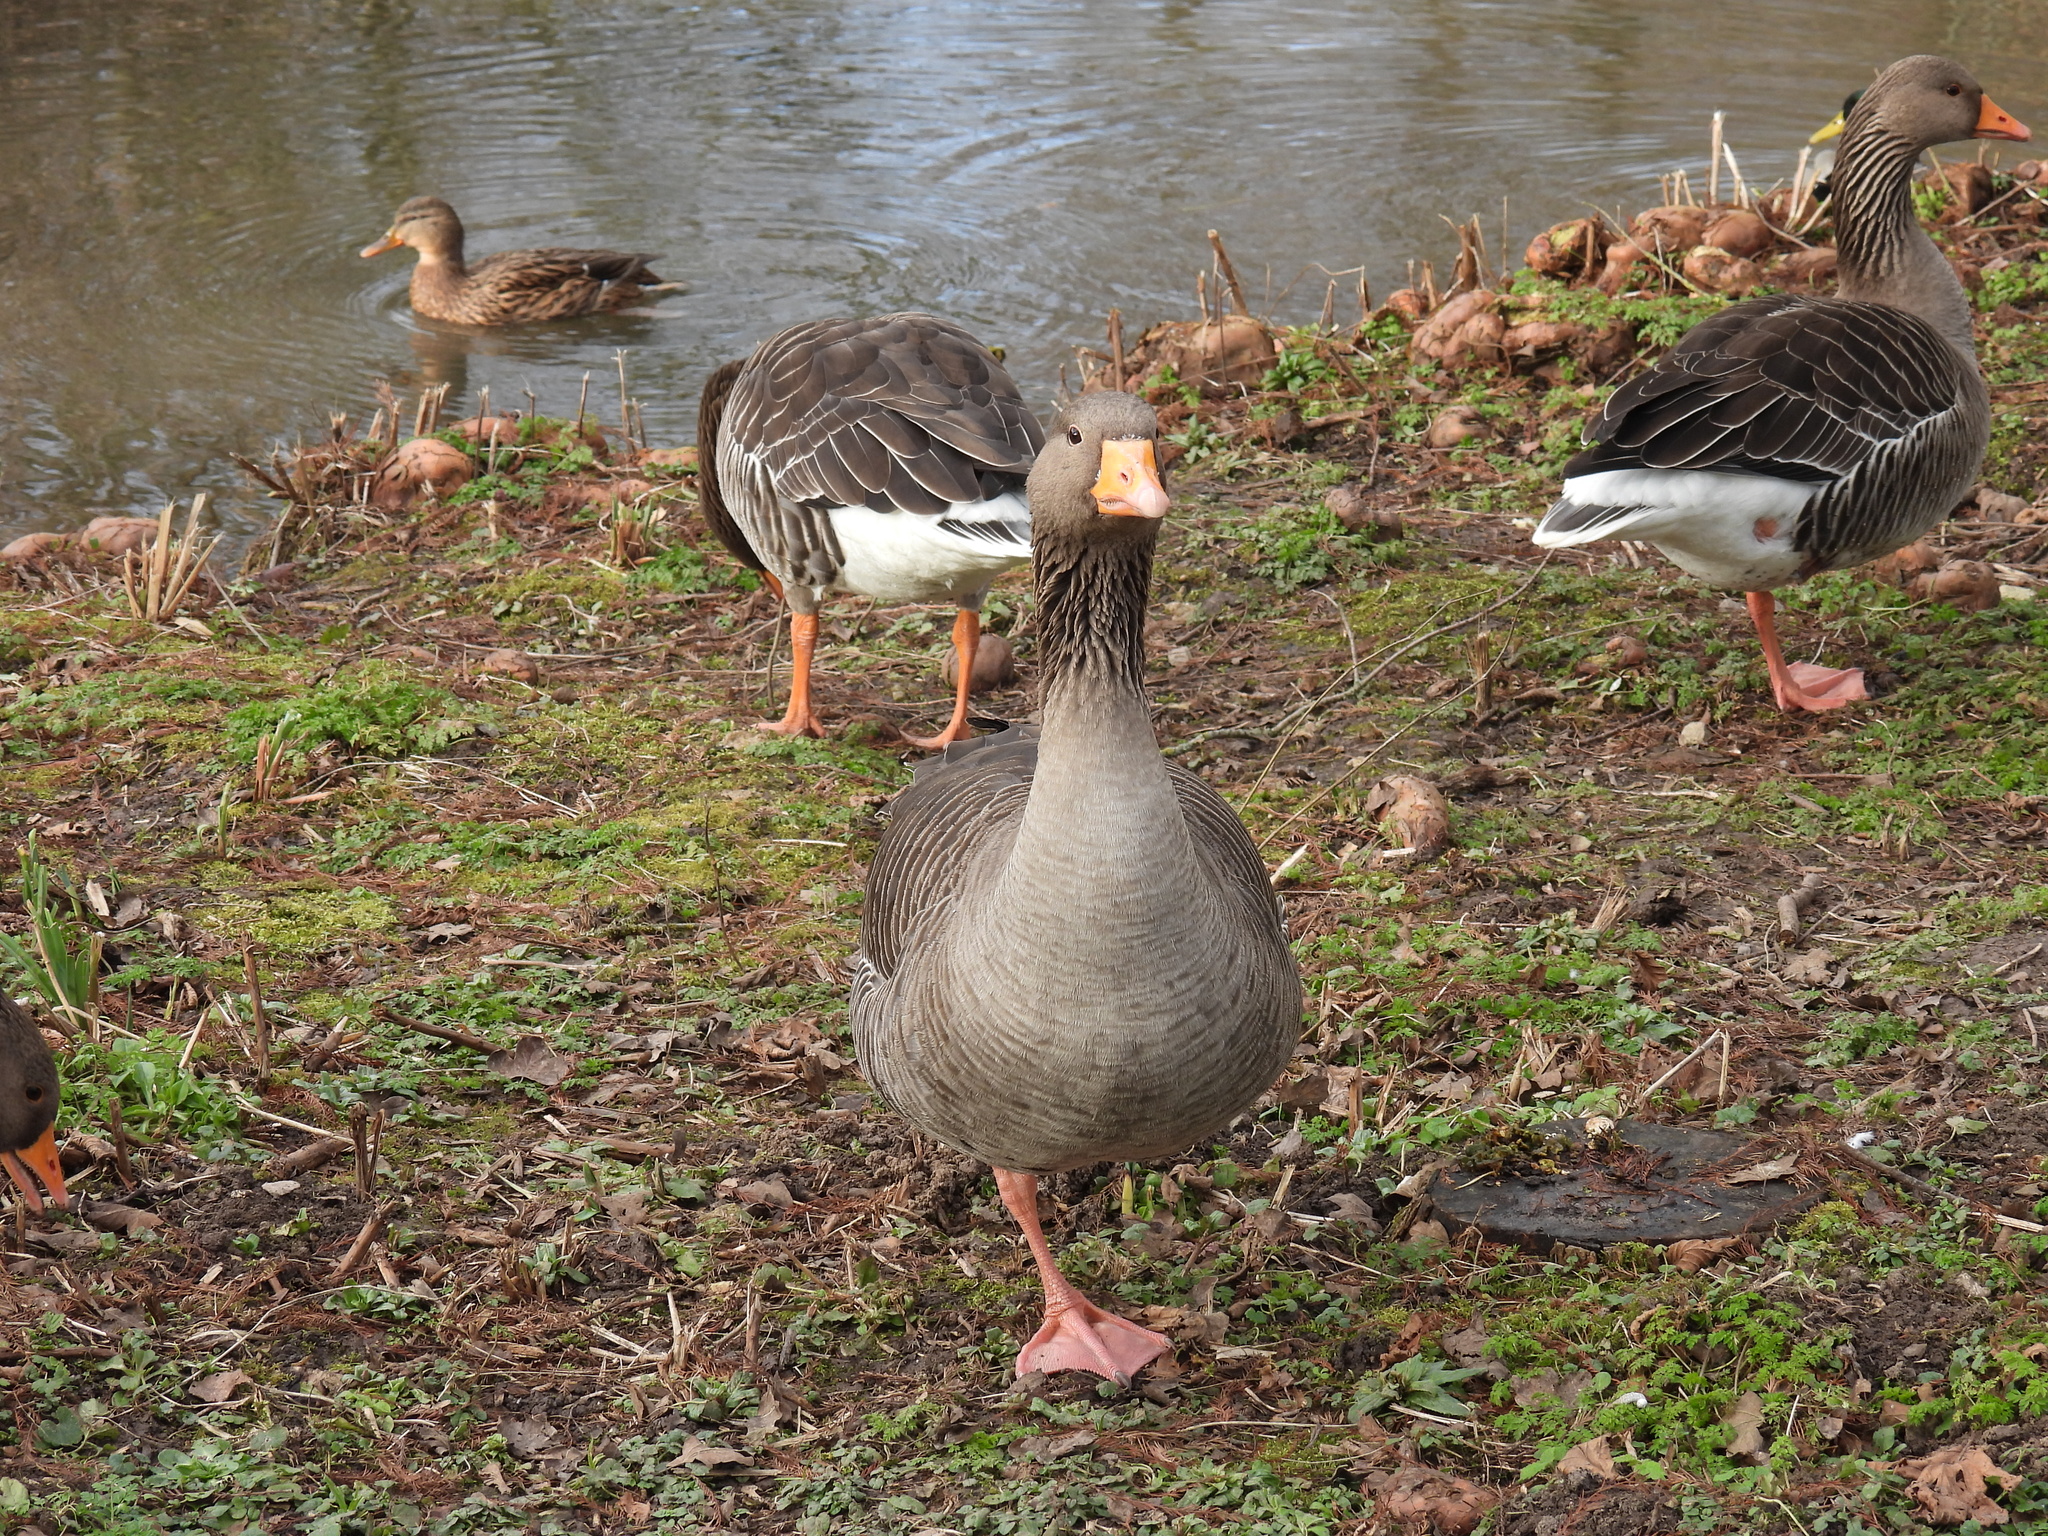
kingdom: Animalia
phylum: Chordata
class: Aves
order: Anseriformes
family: Anatidae
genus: Anser
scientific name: Anser anser
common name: Greylag goose
